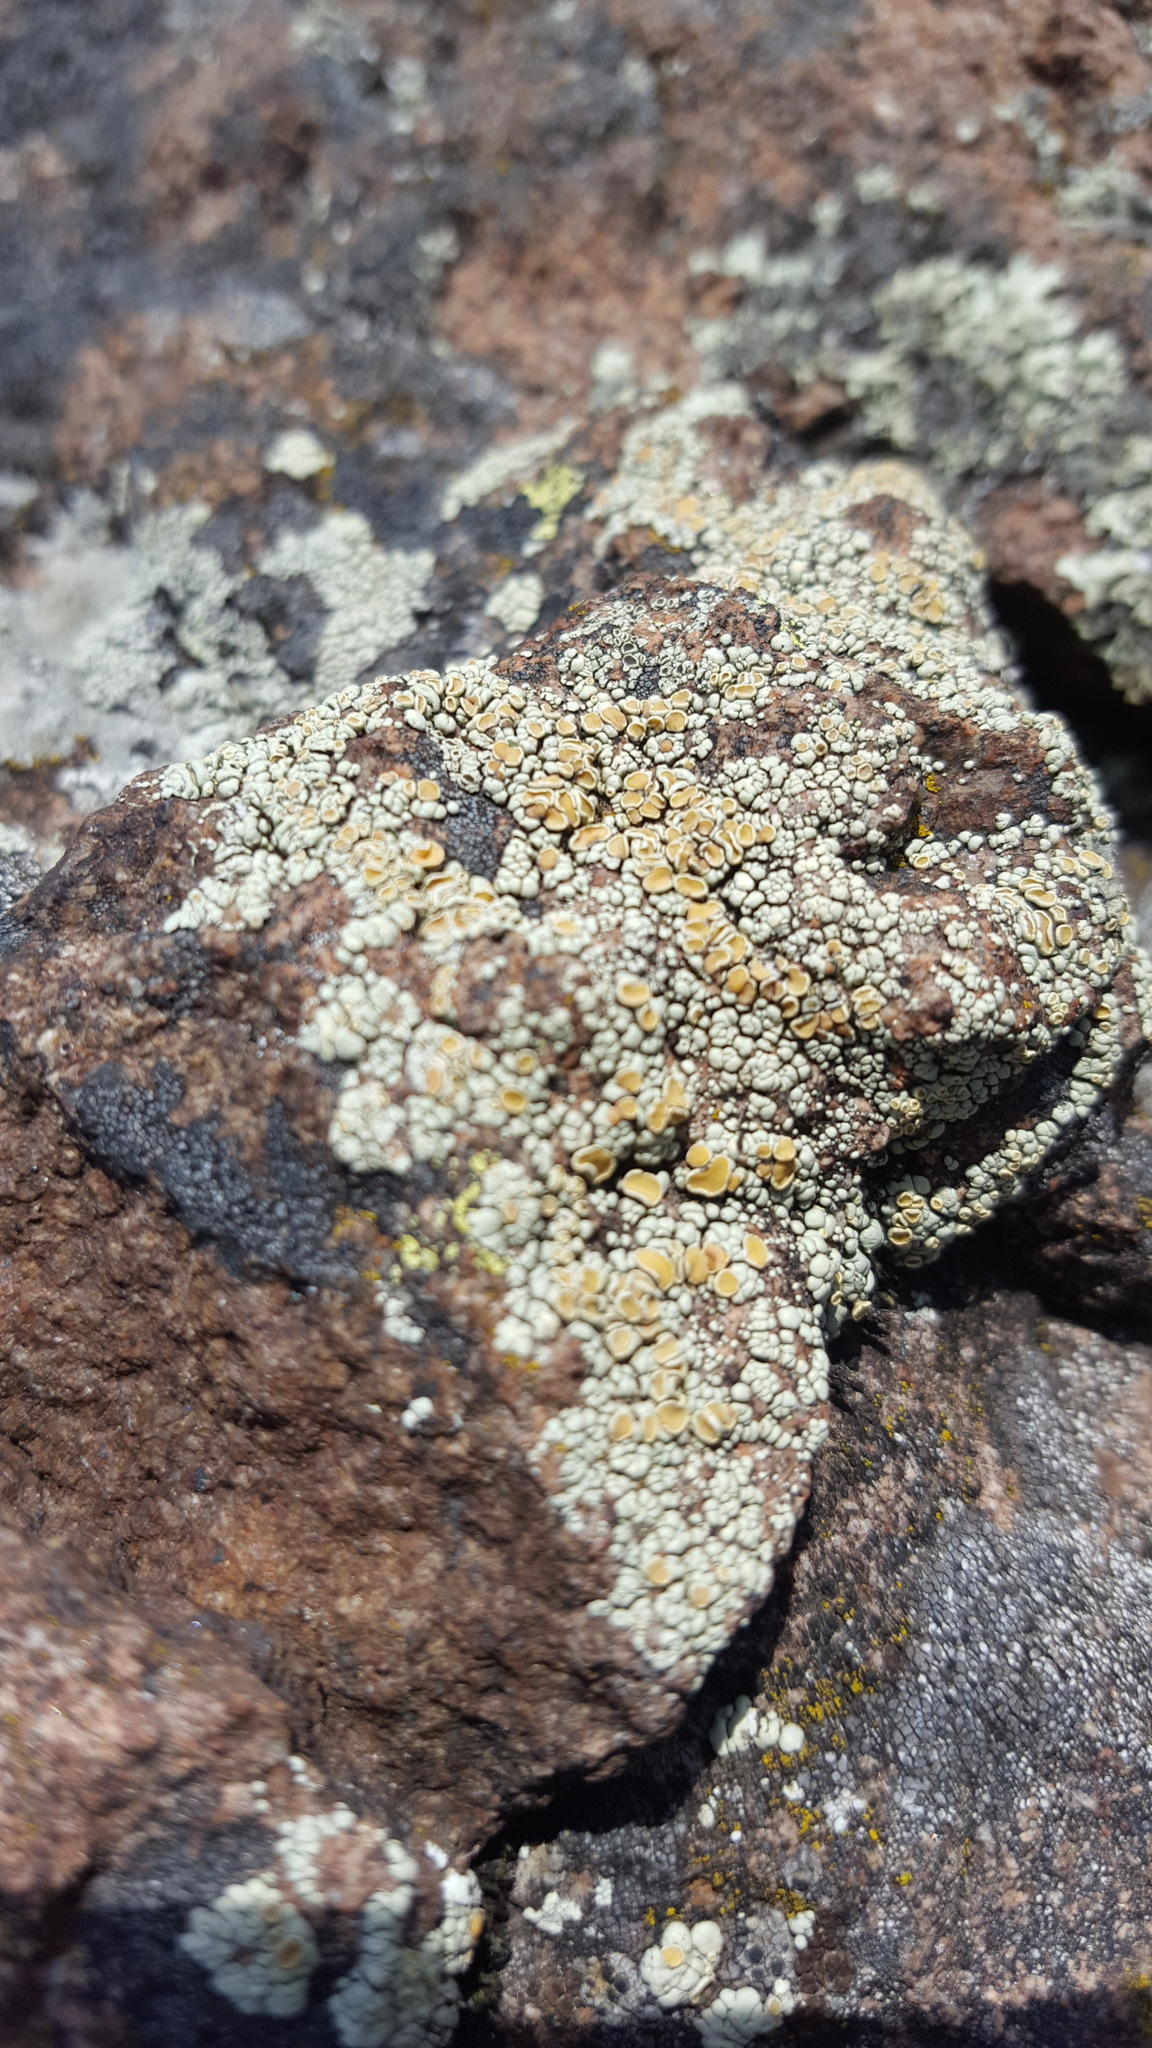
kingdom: Fungi
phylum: Ascomycota
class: Lecanoromycetes
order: Lecanorales
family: Lecanoraceae
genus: Sedelnikovaea
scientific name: Sedelnikovaea subdiscrepans
